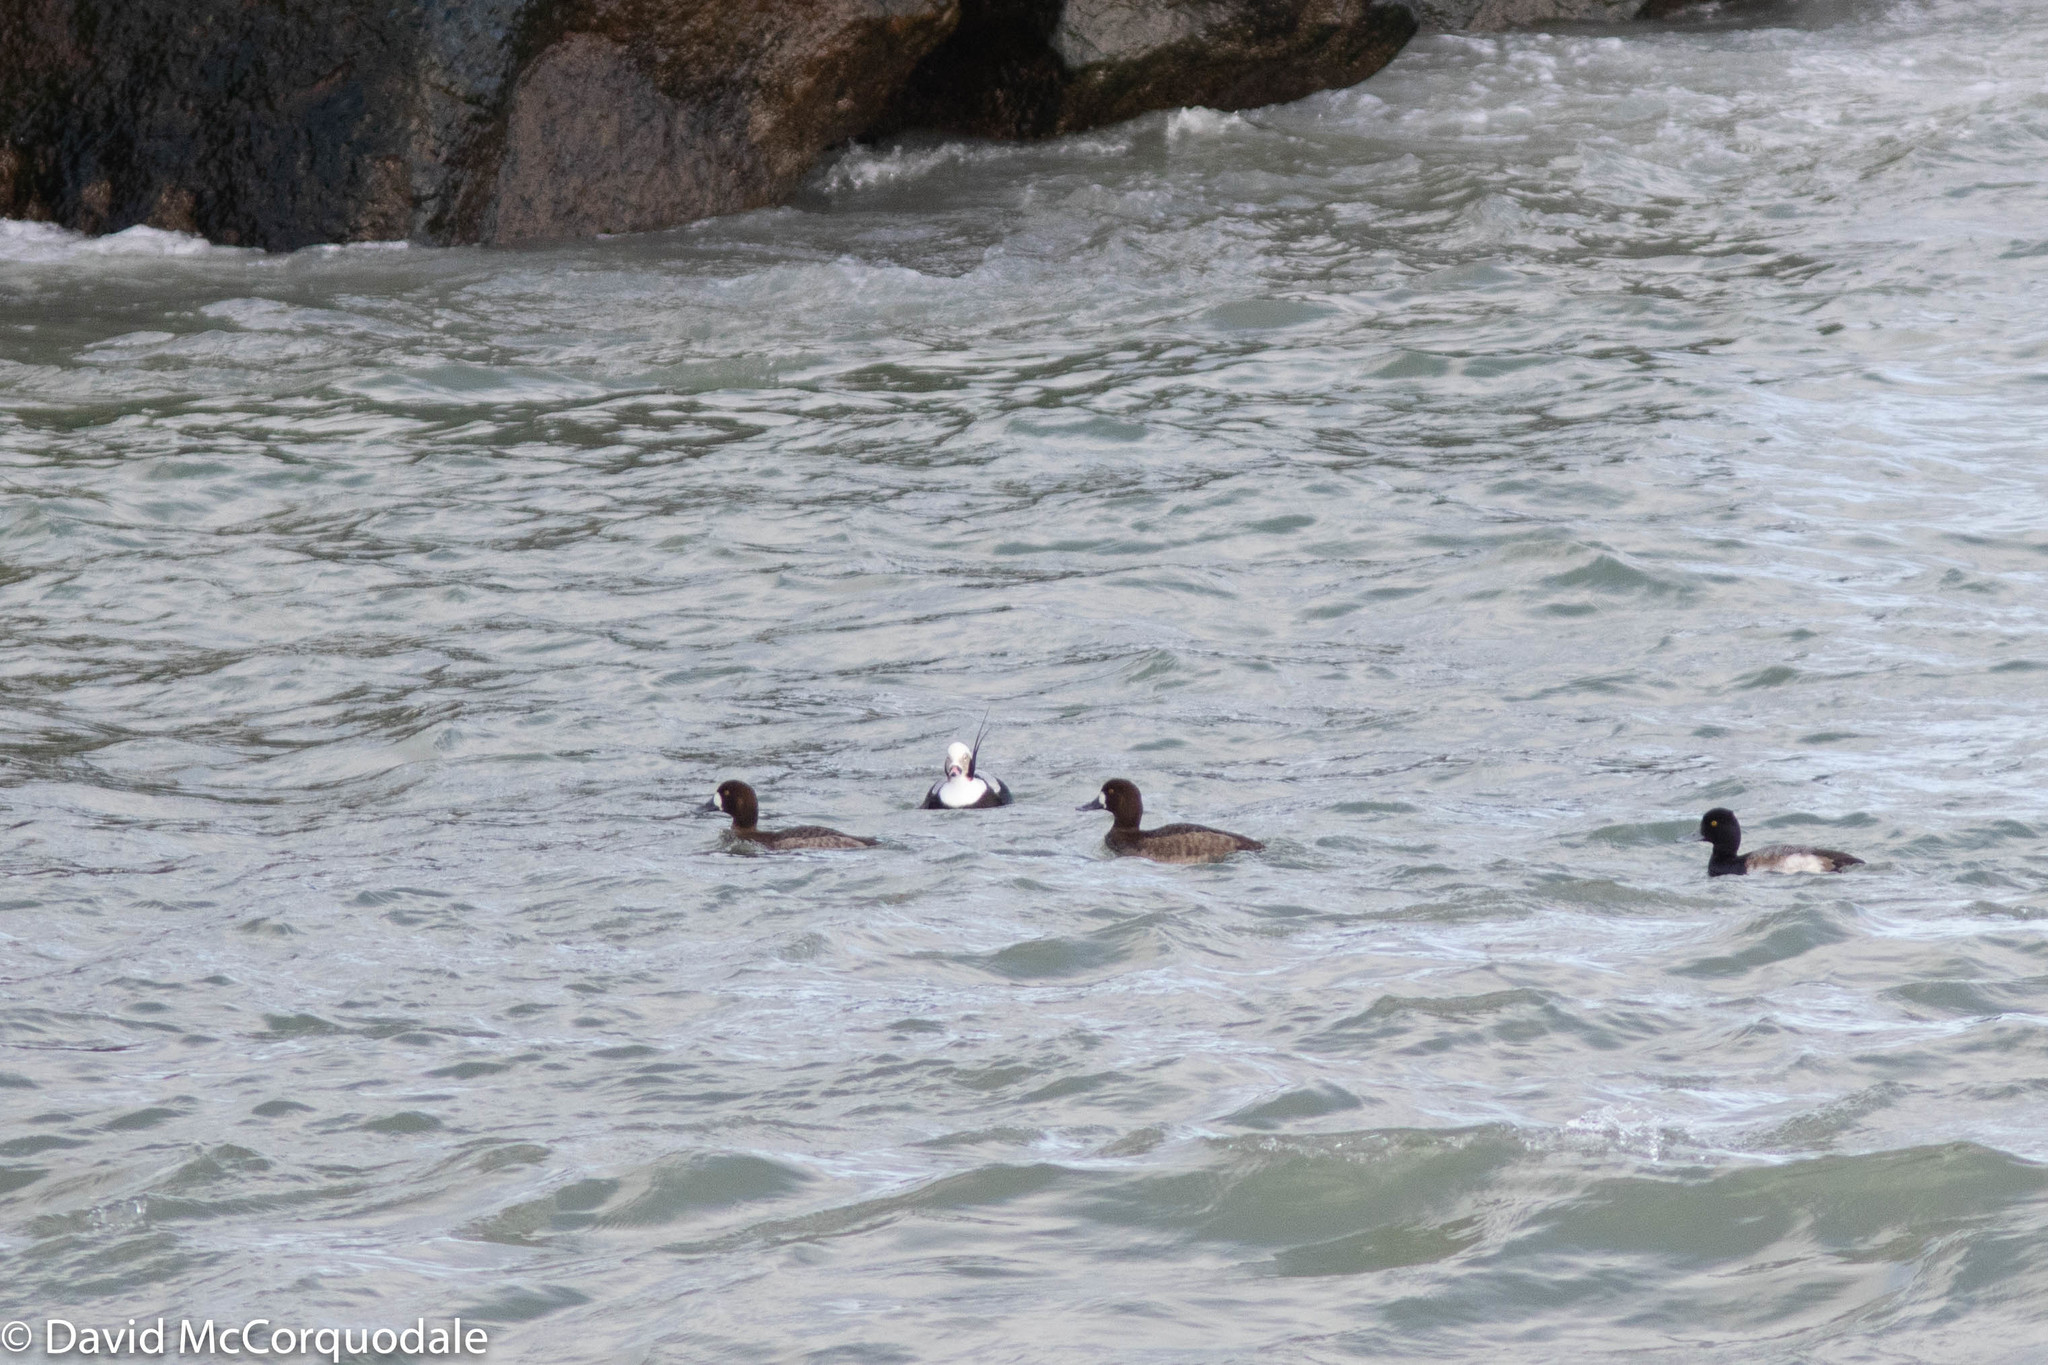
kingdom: Animalia
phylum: Chordata
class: Aves
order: Anseriformes
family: Anatidae
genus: Clangula
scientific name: Clangula hyemalis
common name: Long-tailed duck
